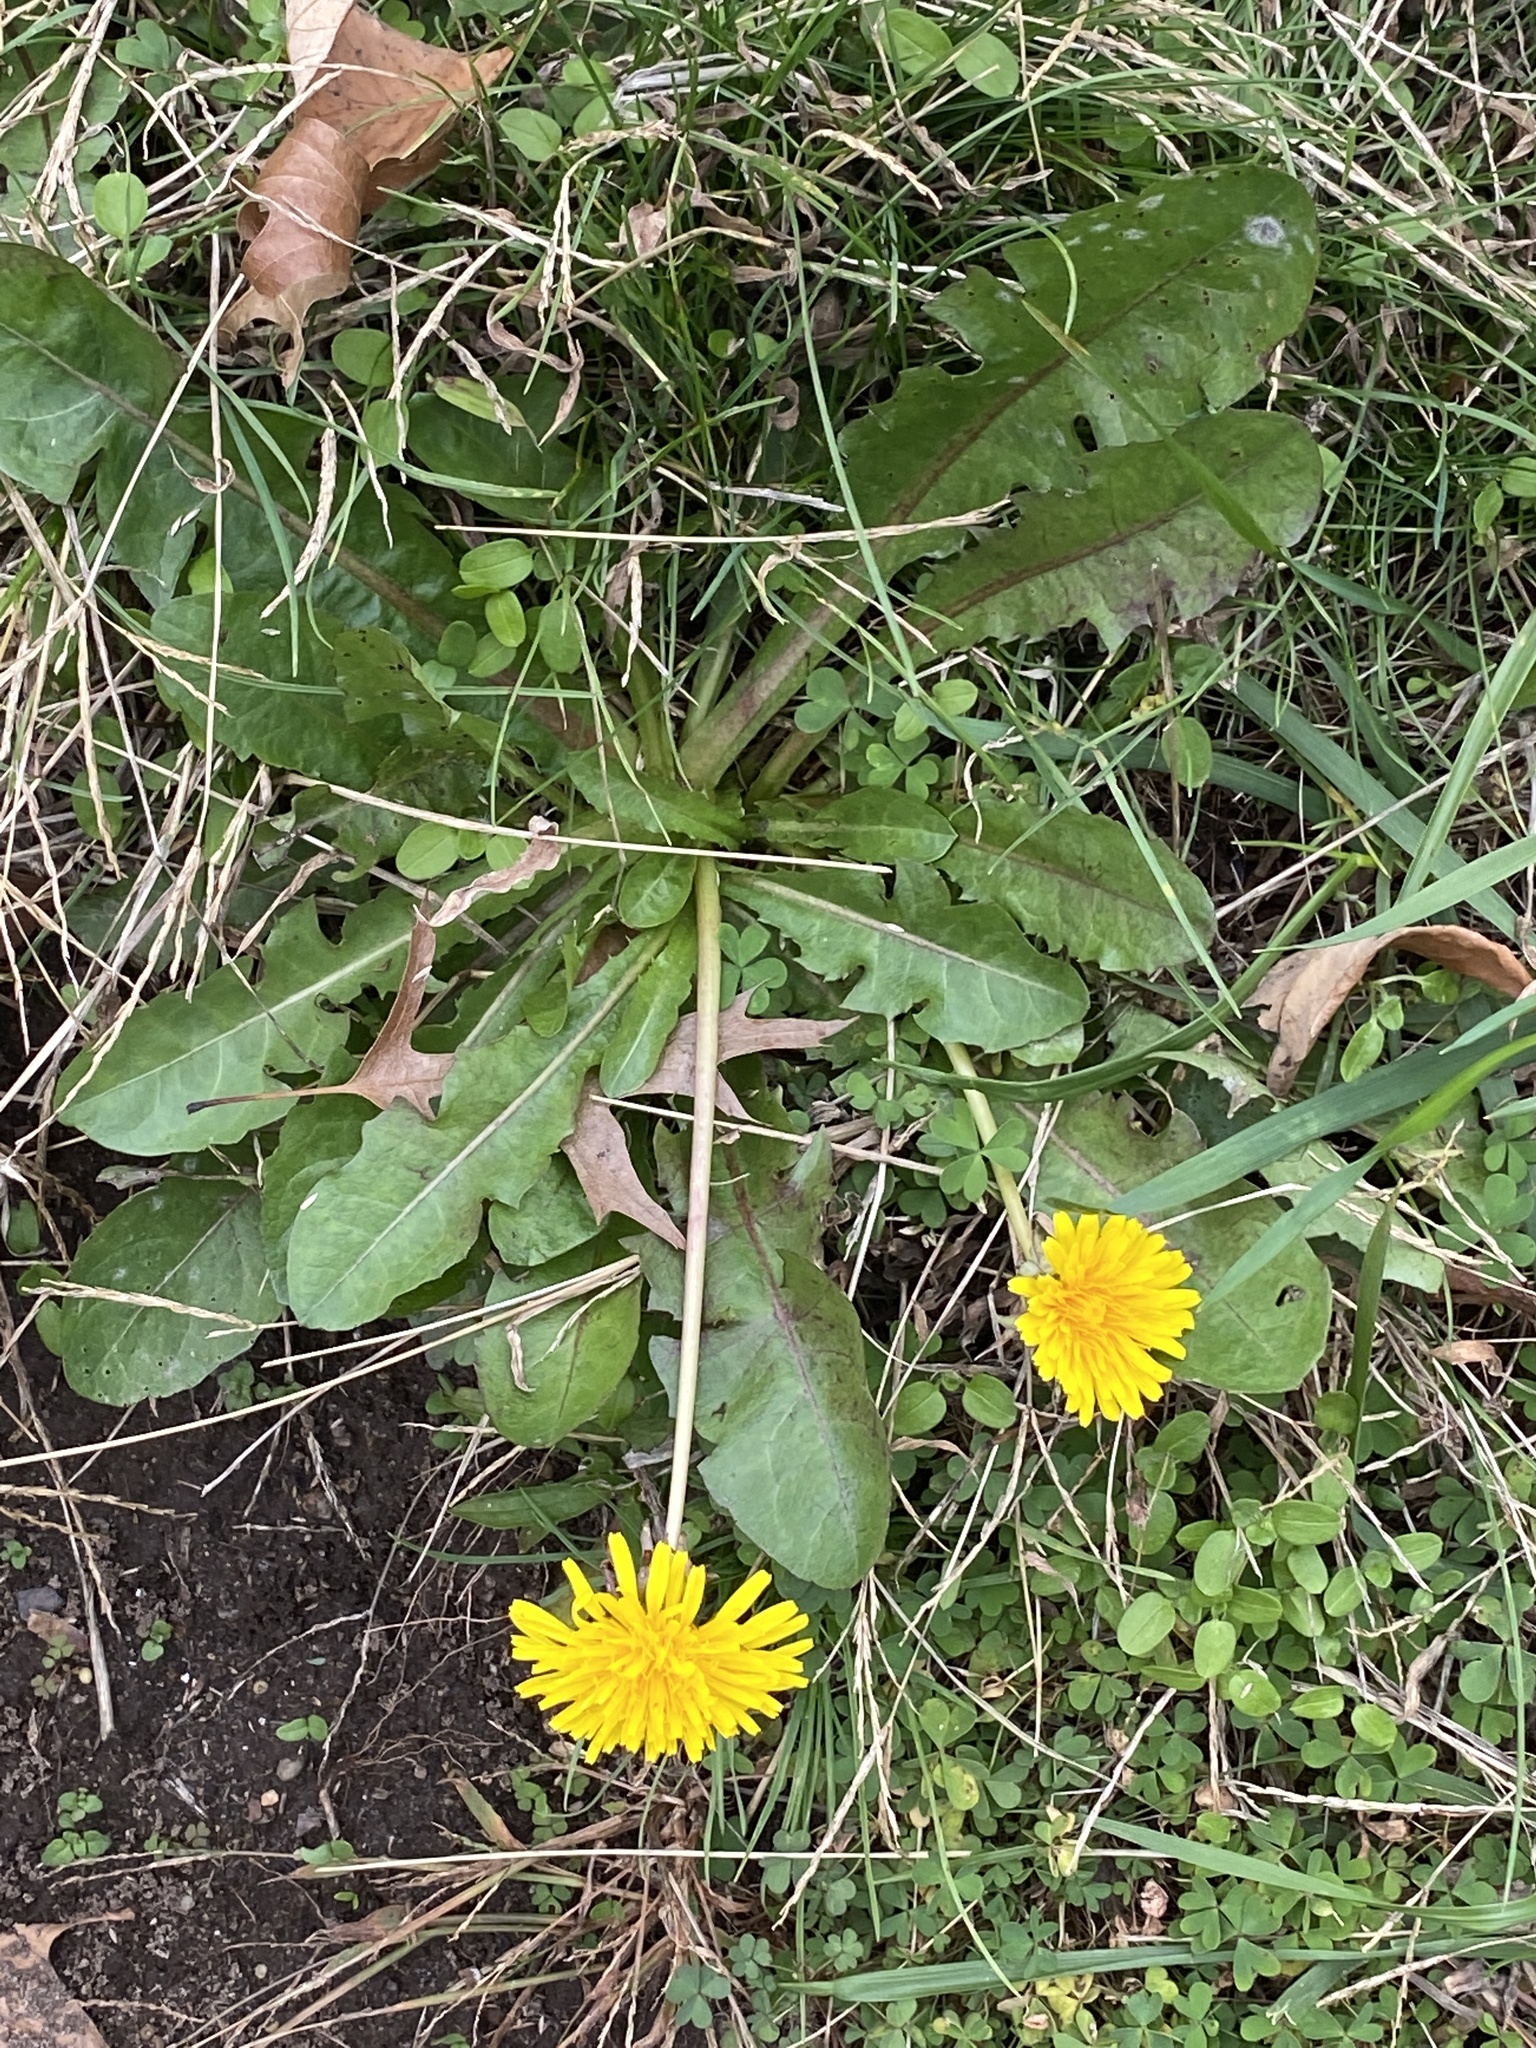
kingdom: Plantae
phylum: Tracheophyta
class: Magnoliopsida
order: Asterales
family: Asteraceae
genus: Taraxacum
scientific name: Taraxacum officinale
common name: Common dandelion
